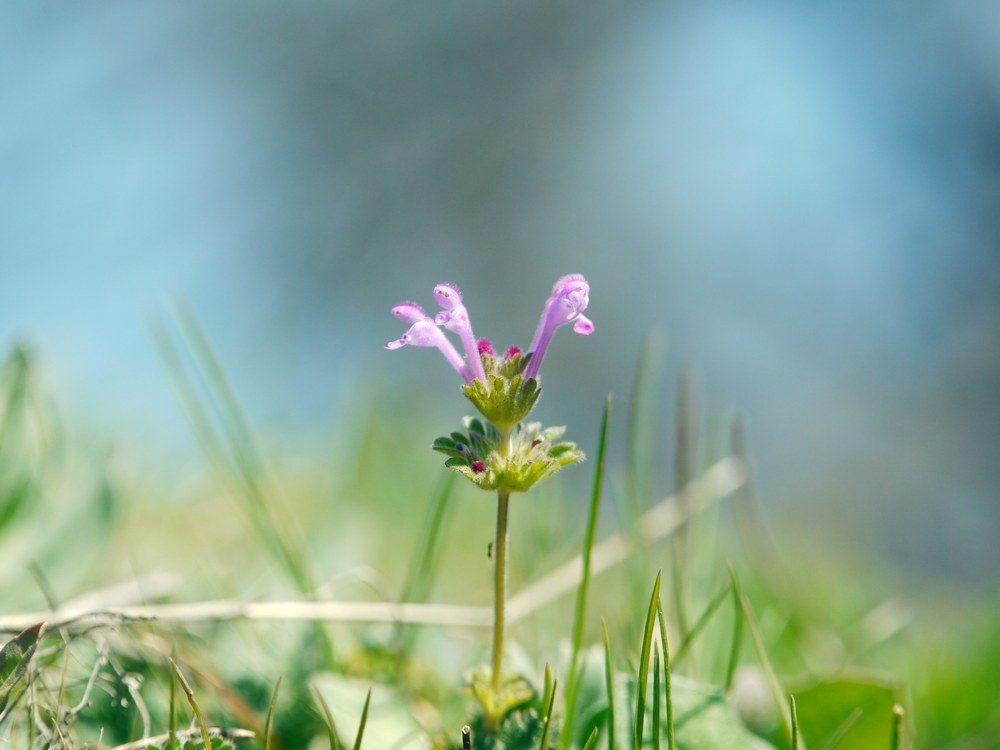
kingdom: Plantae
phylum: Tracheophyta
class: Magnoliopsida
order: Lamiales
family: Lamiaceae
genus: Lamium
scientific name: Lamium amplexicaule
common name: Henbit dead-nettle
